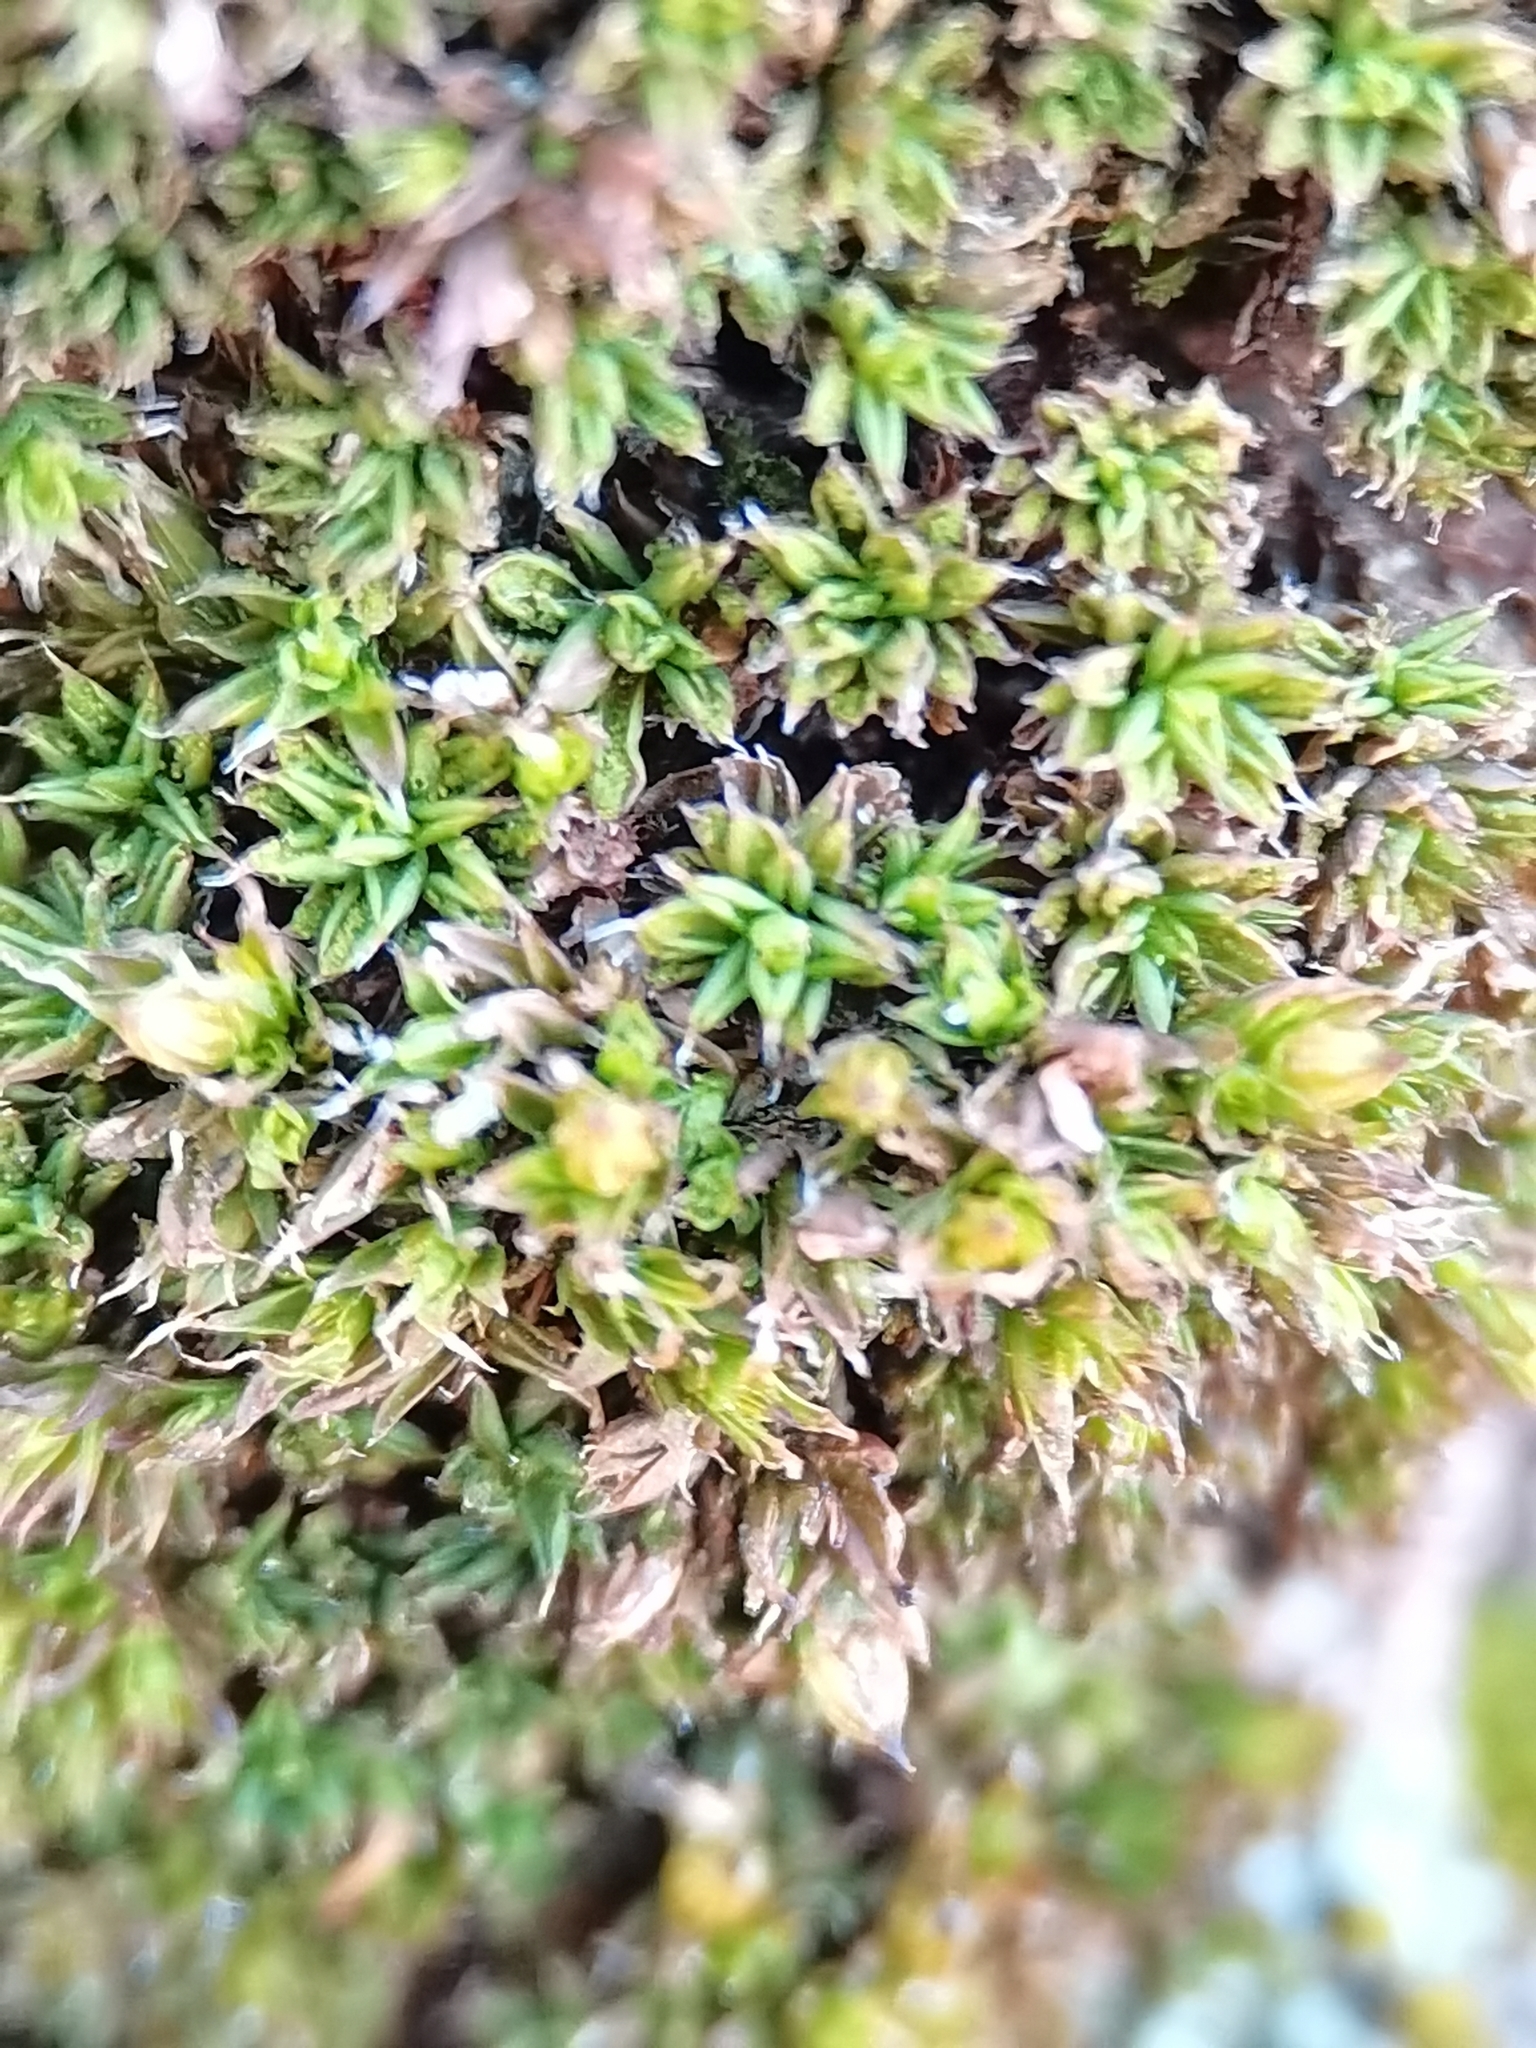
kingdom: Plantae
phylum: Bryophyta
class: Bryopsida
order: Pottiales
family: Pottiaceae
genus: Syntrichia
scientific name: Syntrichia papillosa
